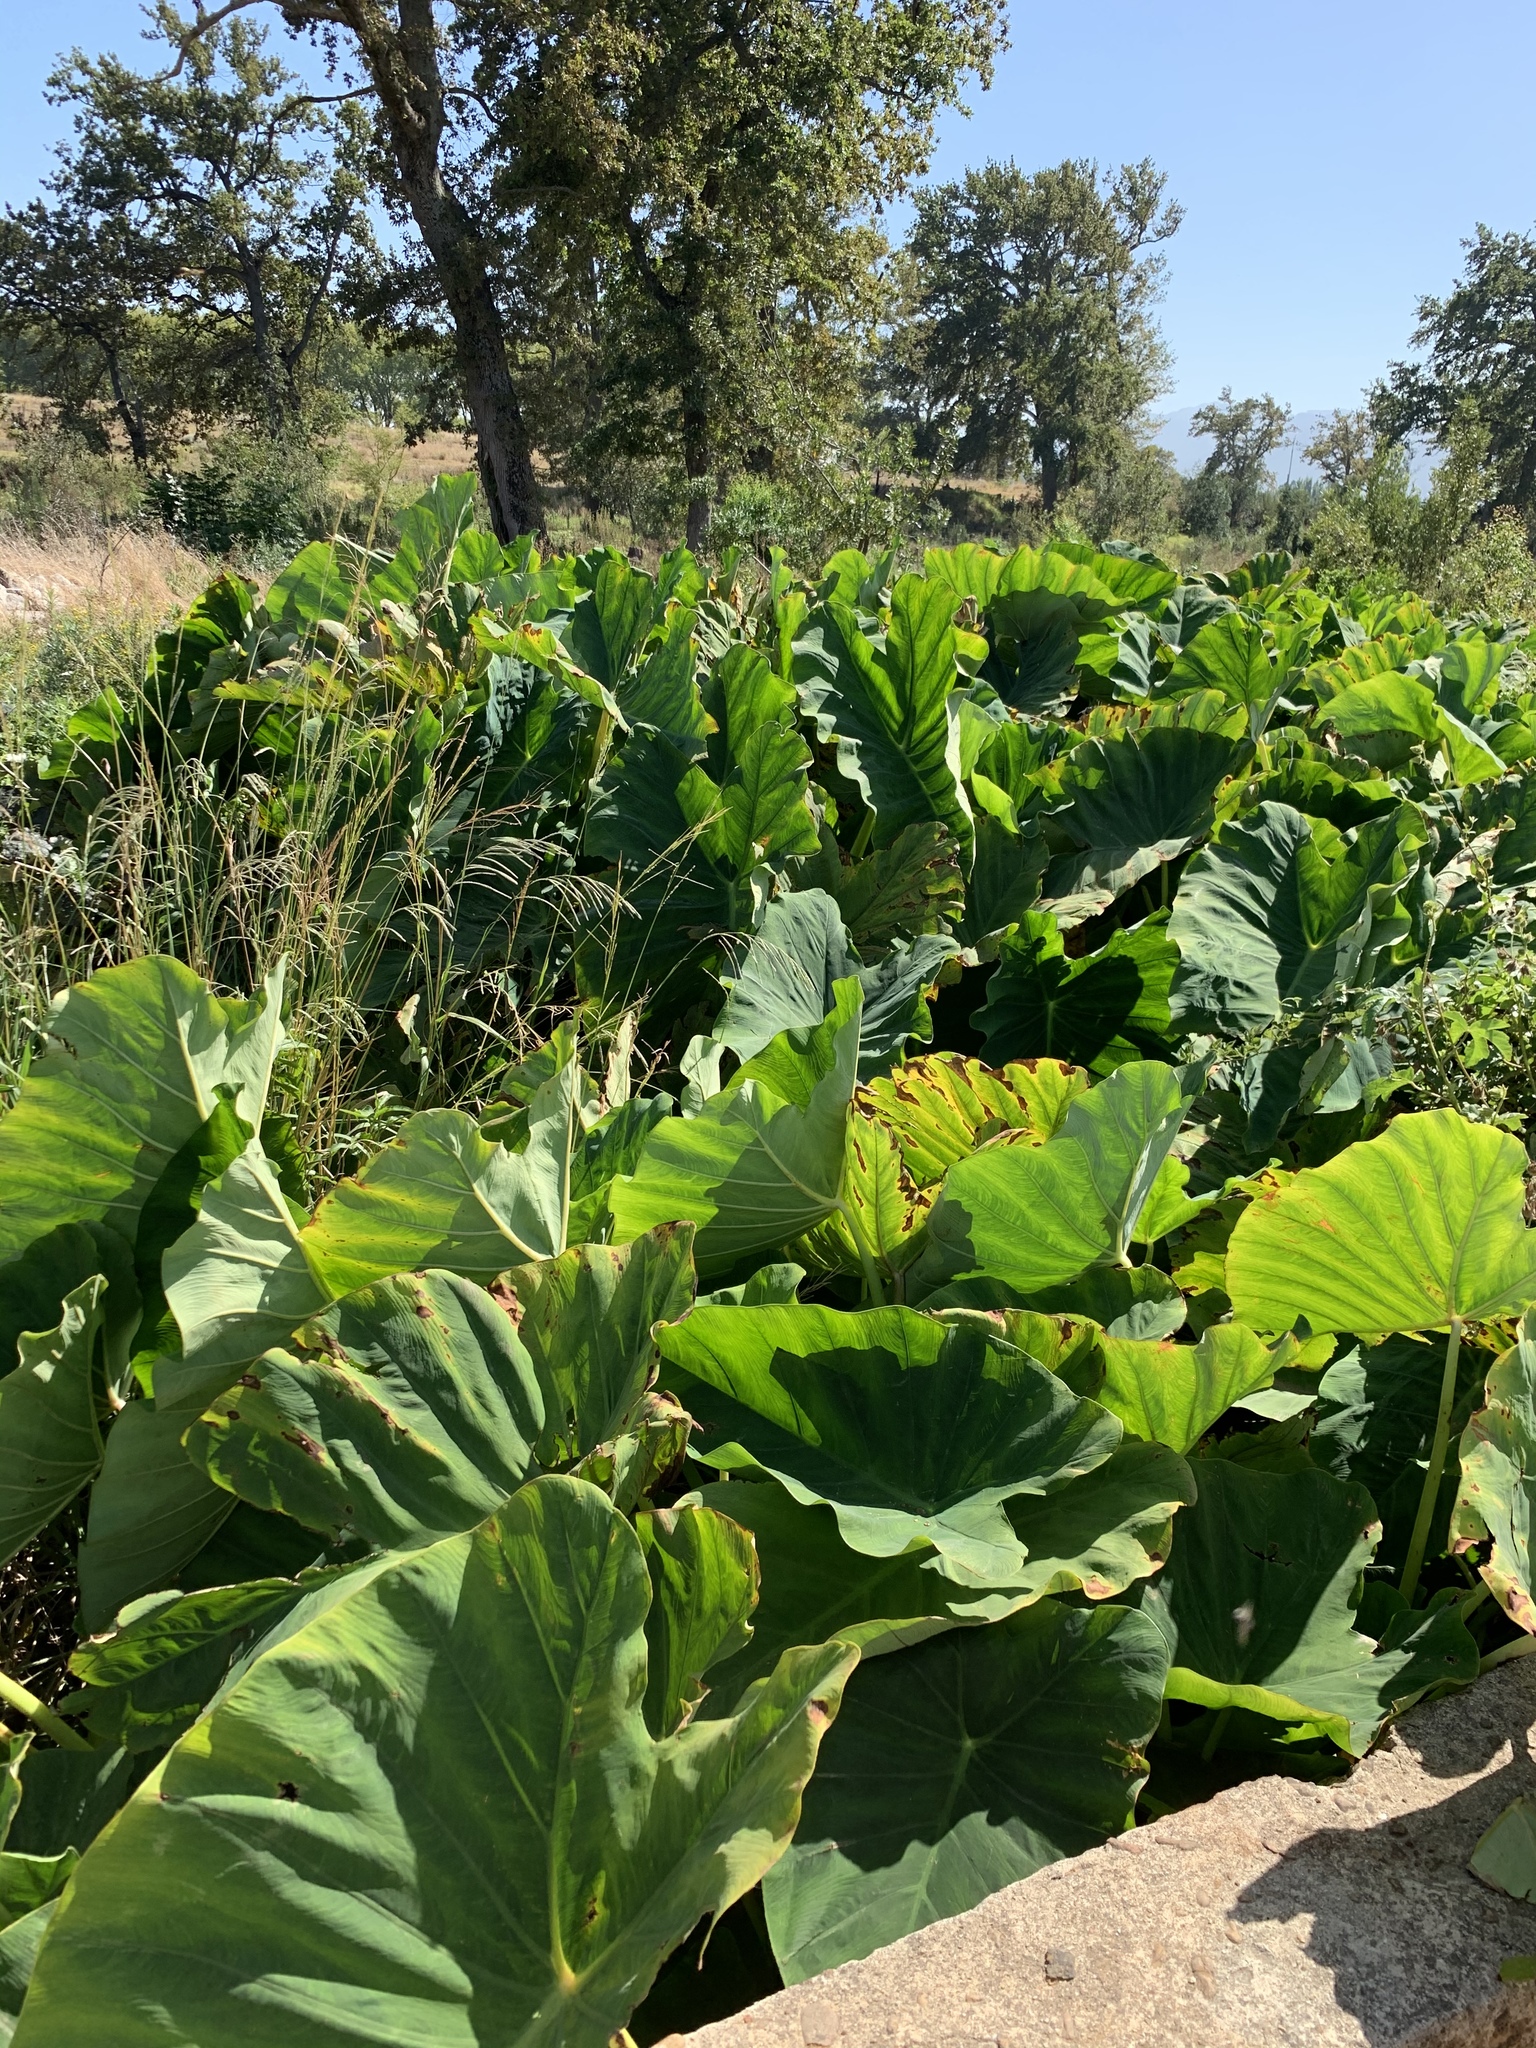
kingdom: Plantae
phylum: Tracheophyta
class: Liliopsida
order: Alismatales
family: Araceae
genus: Colocasia
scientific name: Colocasia esculenta
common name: Taro
